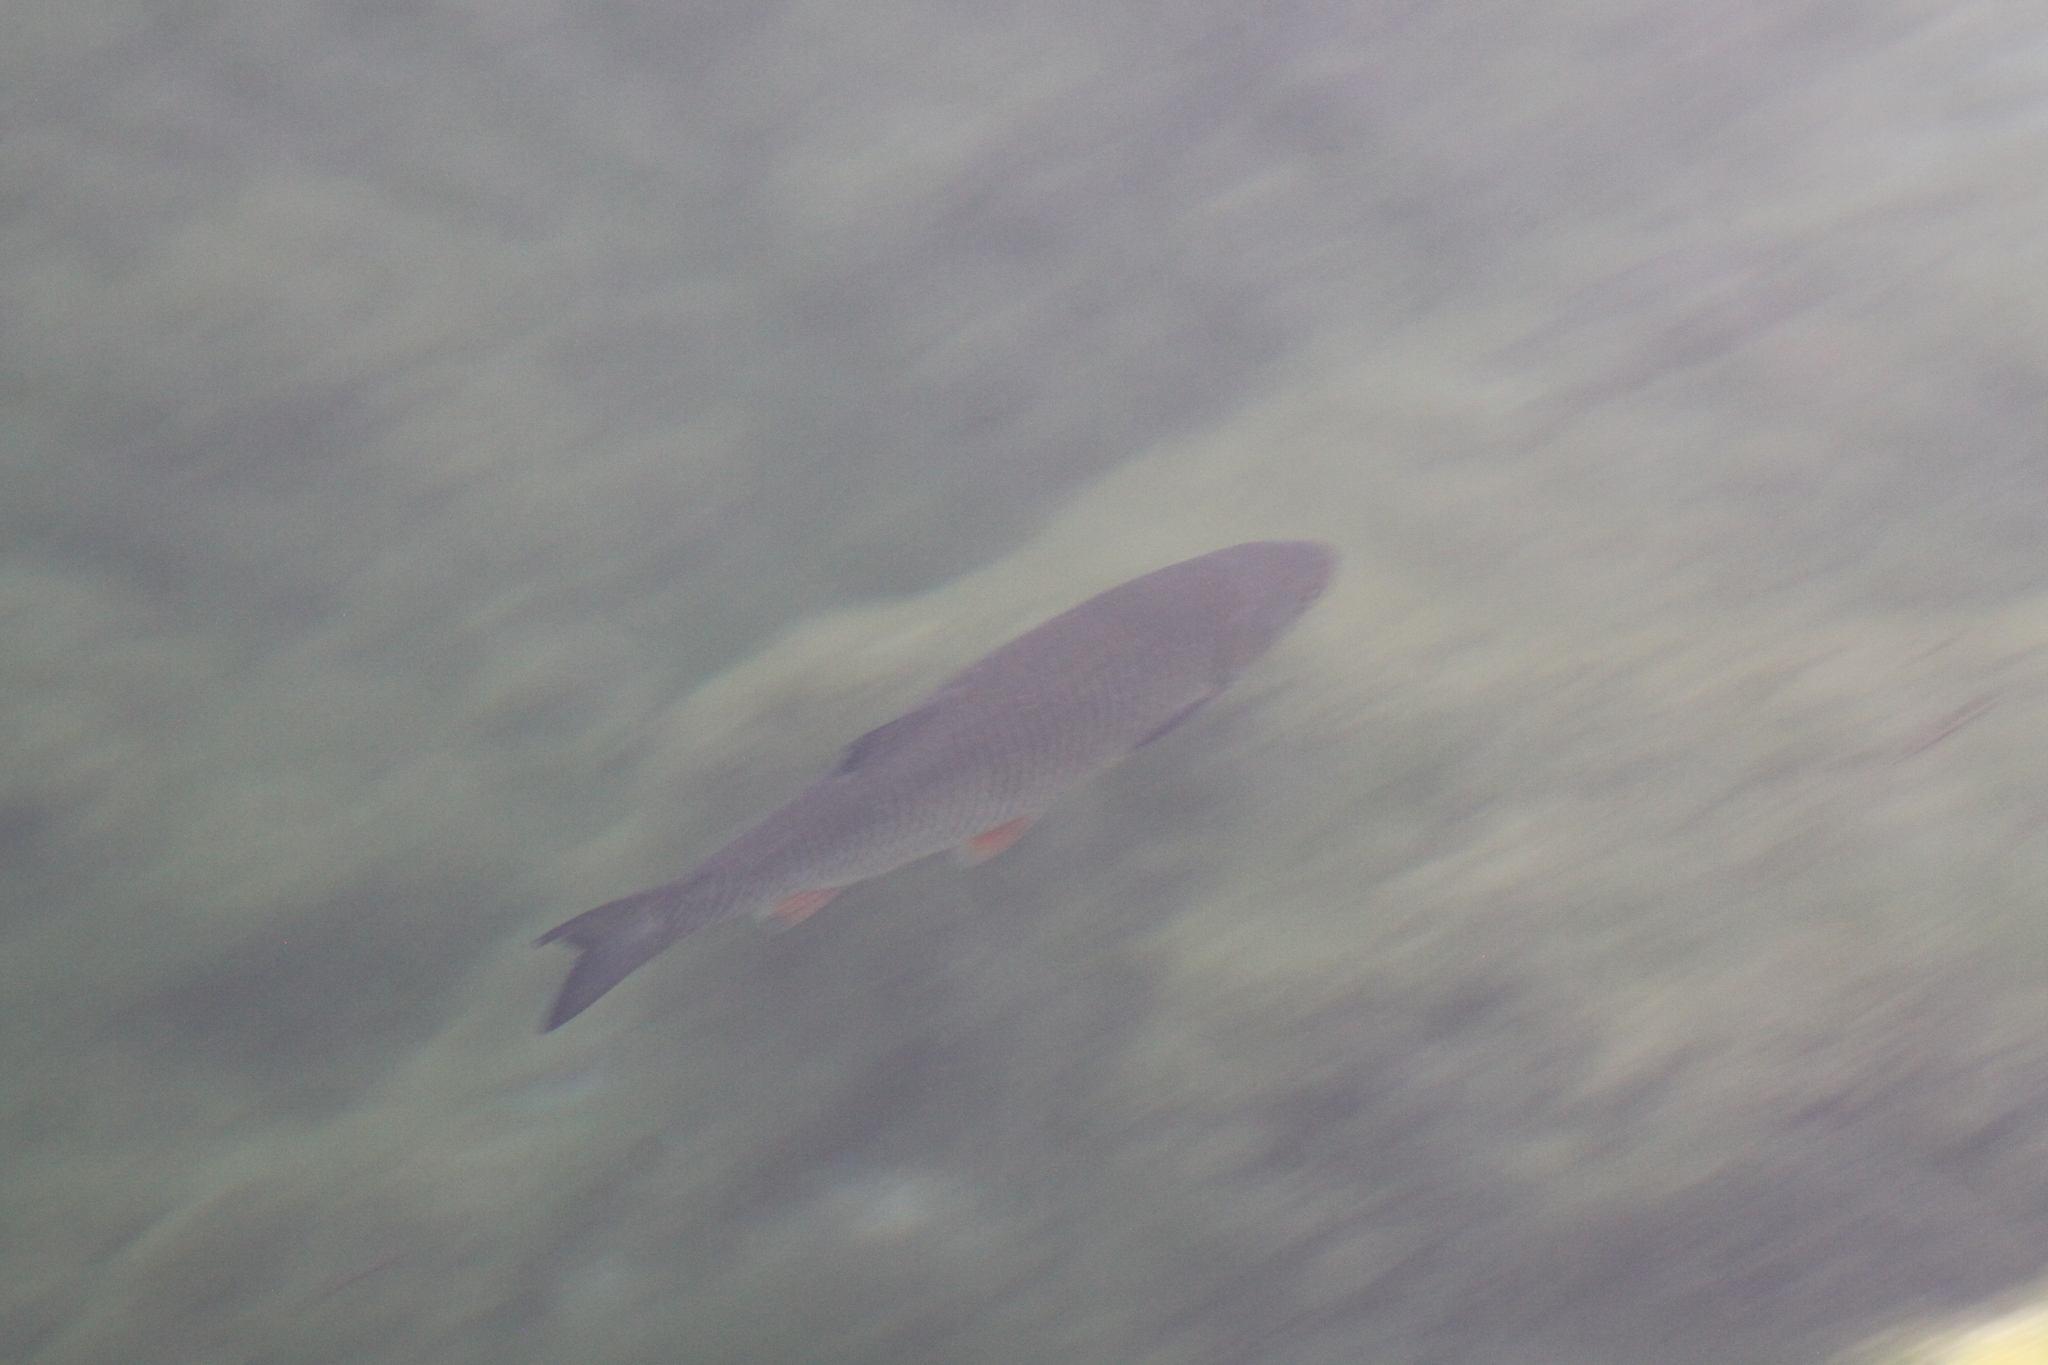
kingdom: Animalia
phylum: Chordata
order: Cypriniformes
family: Cyprinidae
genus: Squalius
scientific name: Squalius cephalus
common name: Chub
